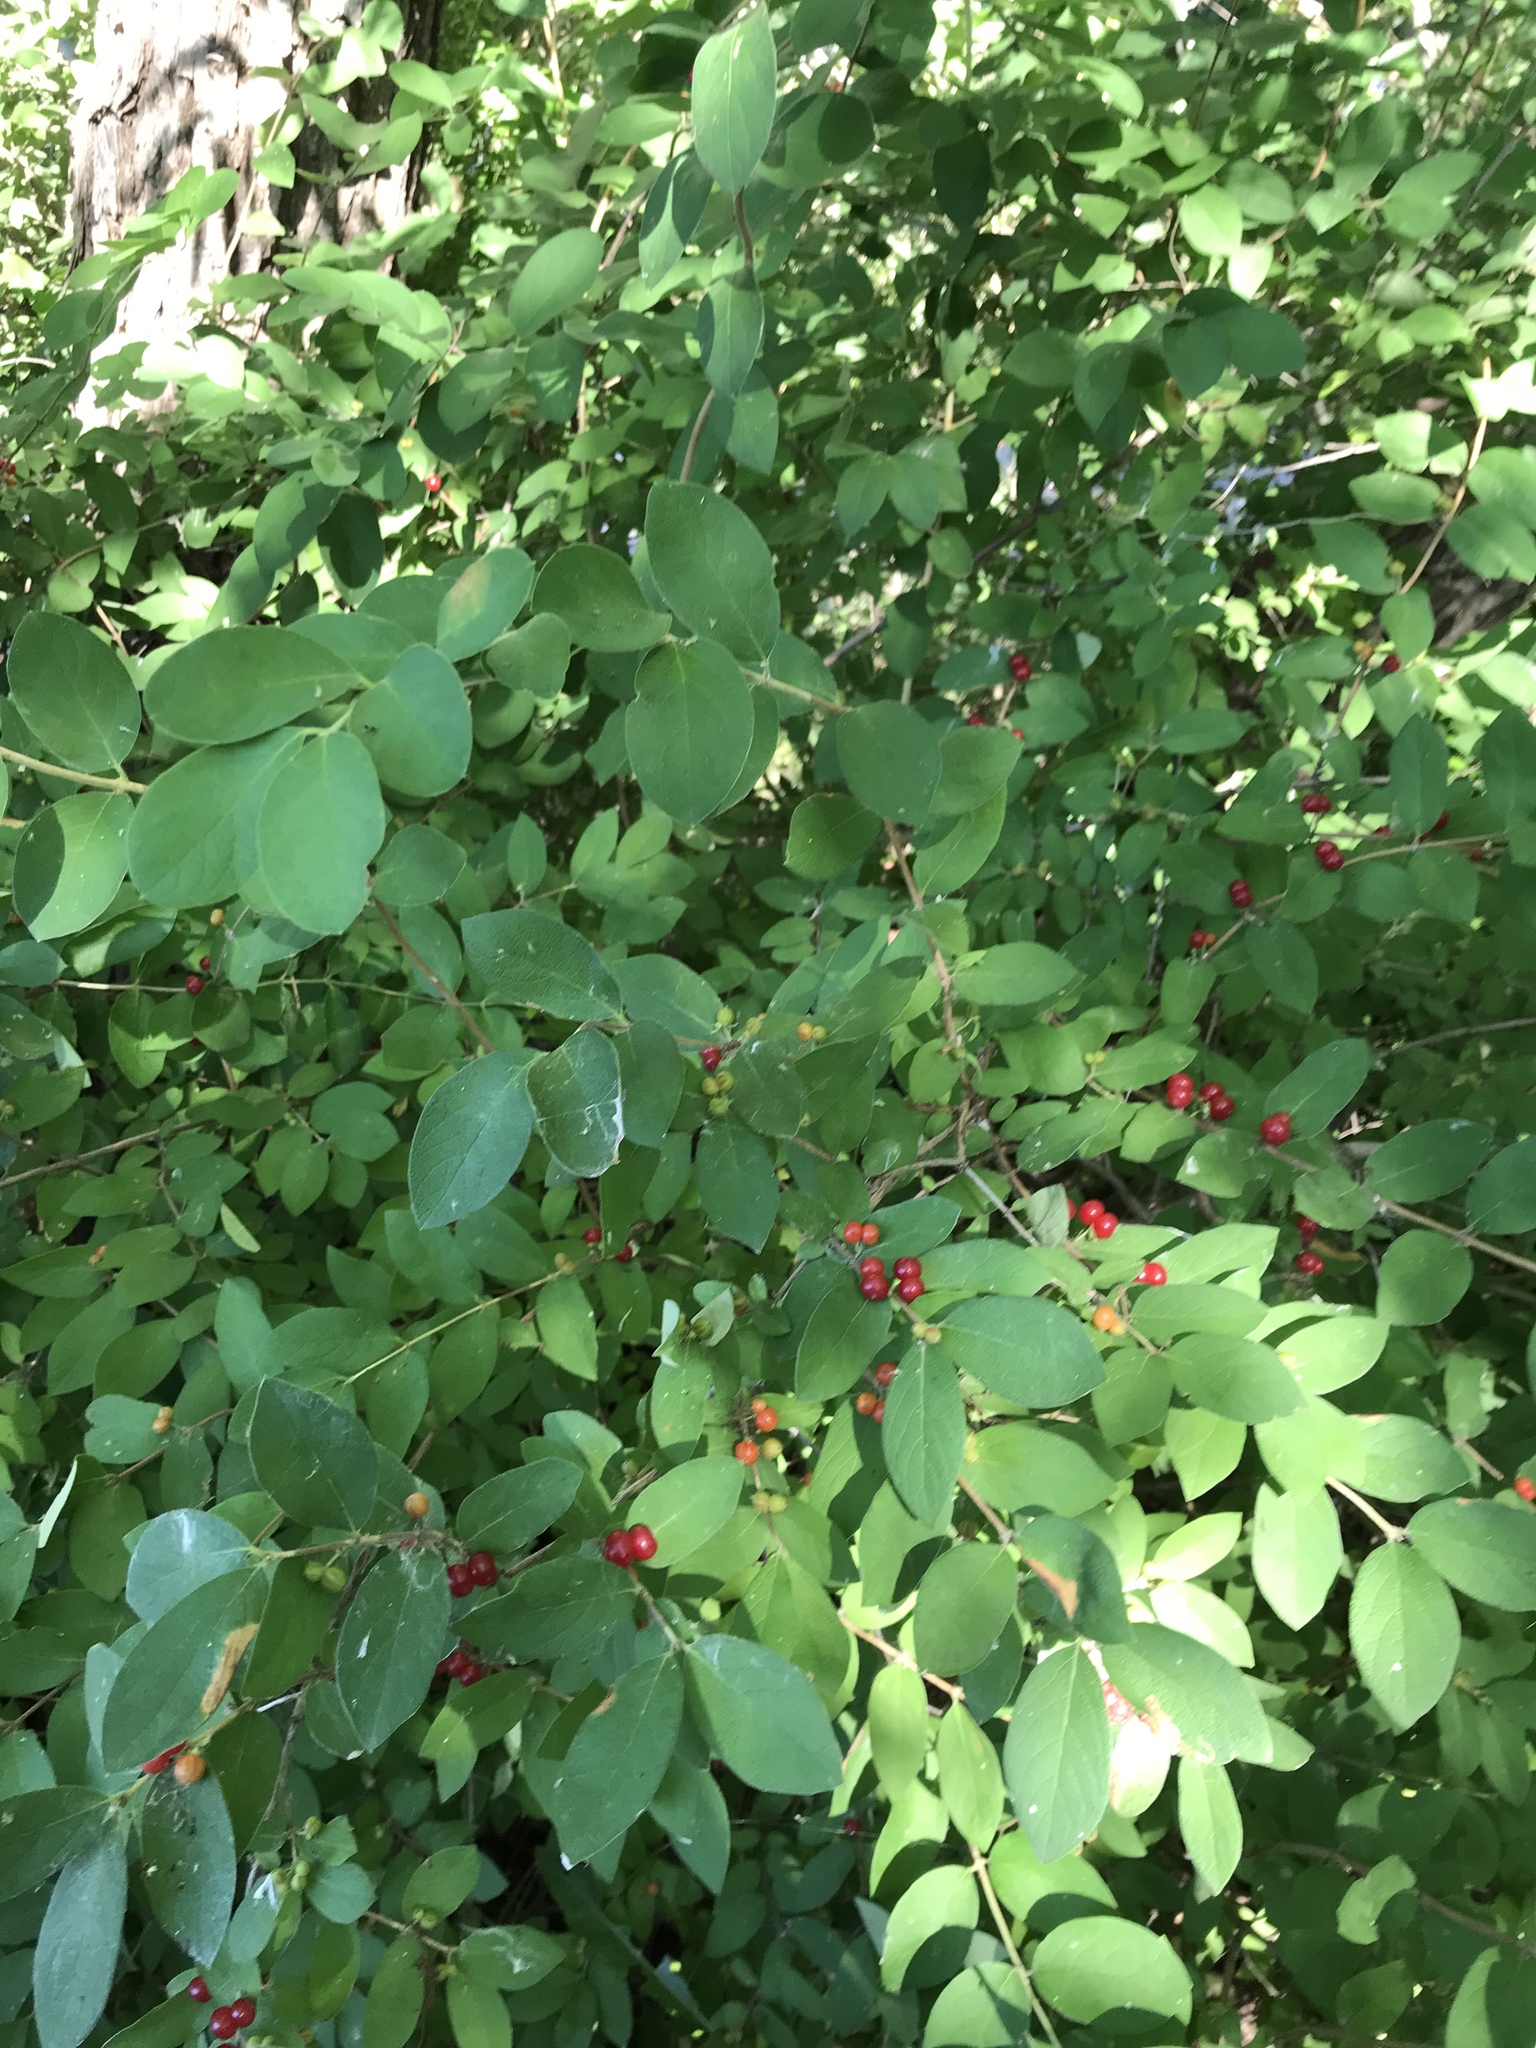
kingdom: Plantae
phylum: Tracheophyta
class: Magnoliopsida
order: Dipsacales
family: Caprifoliaceae
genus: Lonicera
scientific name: Lonicera morrowii
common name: Morrow's honeysuckle
